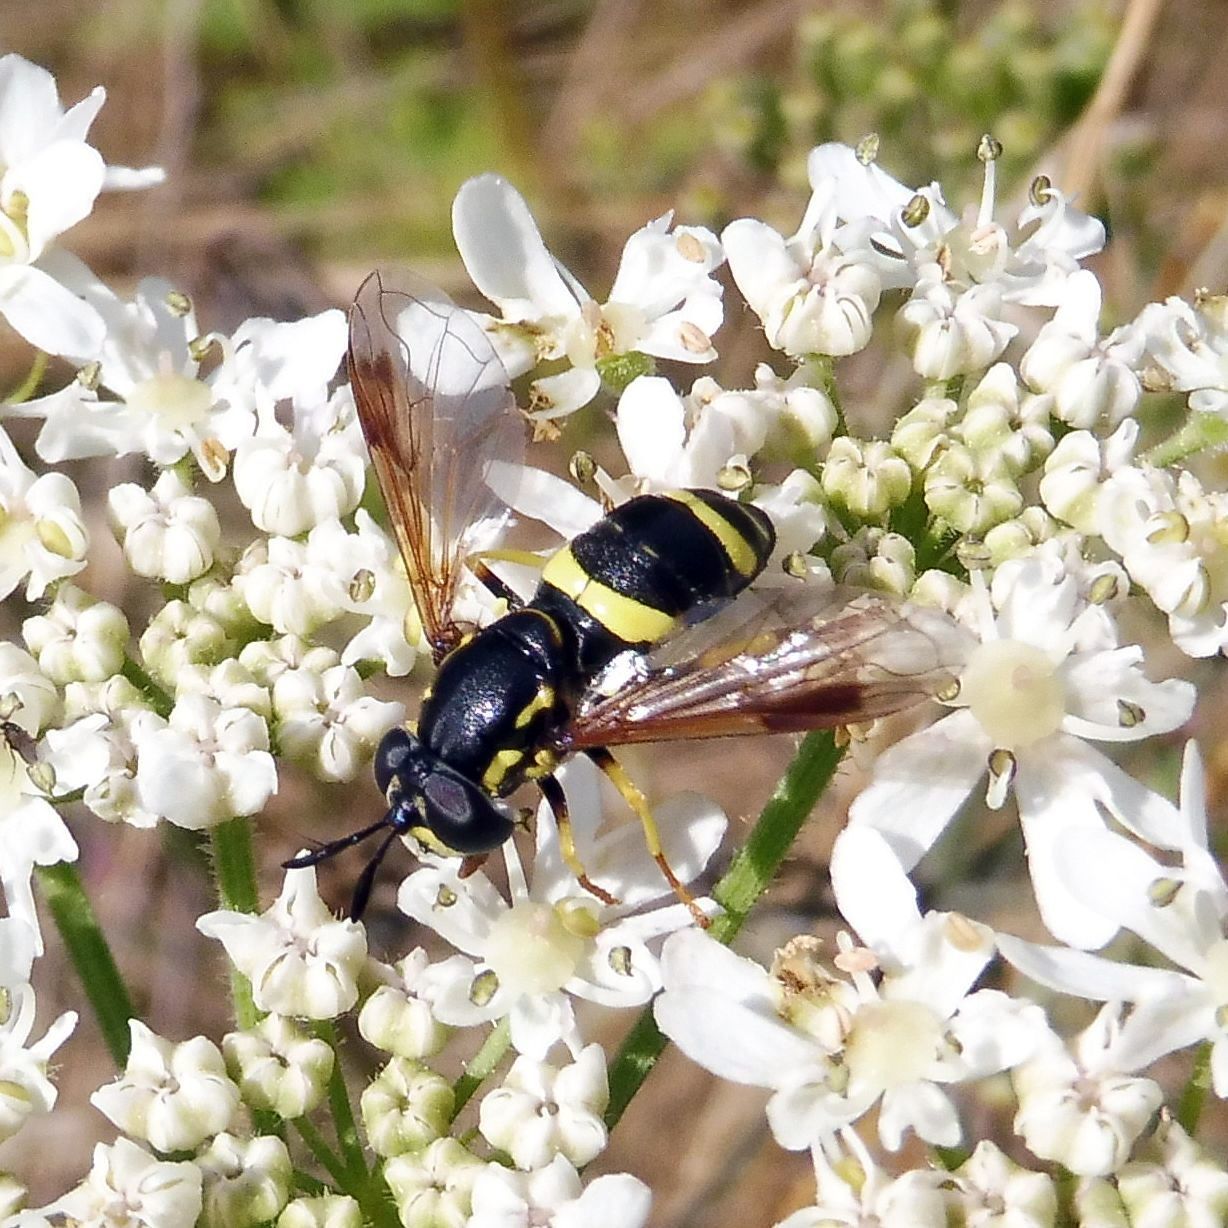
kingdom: Animalia
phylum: Arthropoda
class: Insecta
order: Diptera
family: Syrphidae
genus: Chrysotoxum
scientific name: Chrysotoxum bicincta
